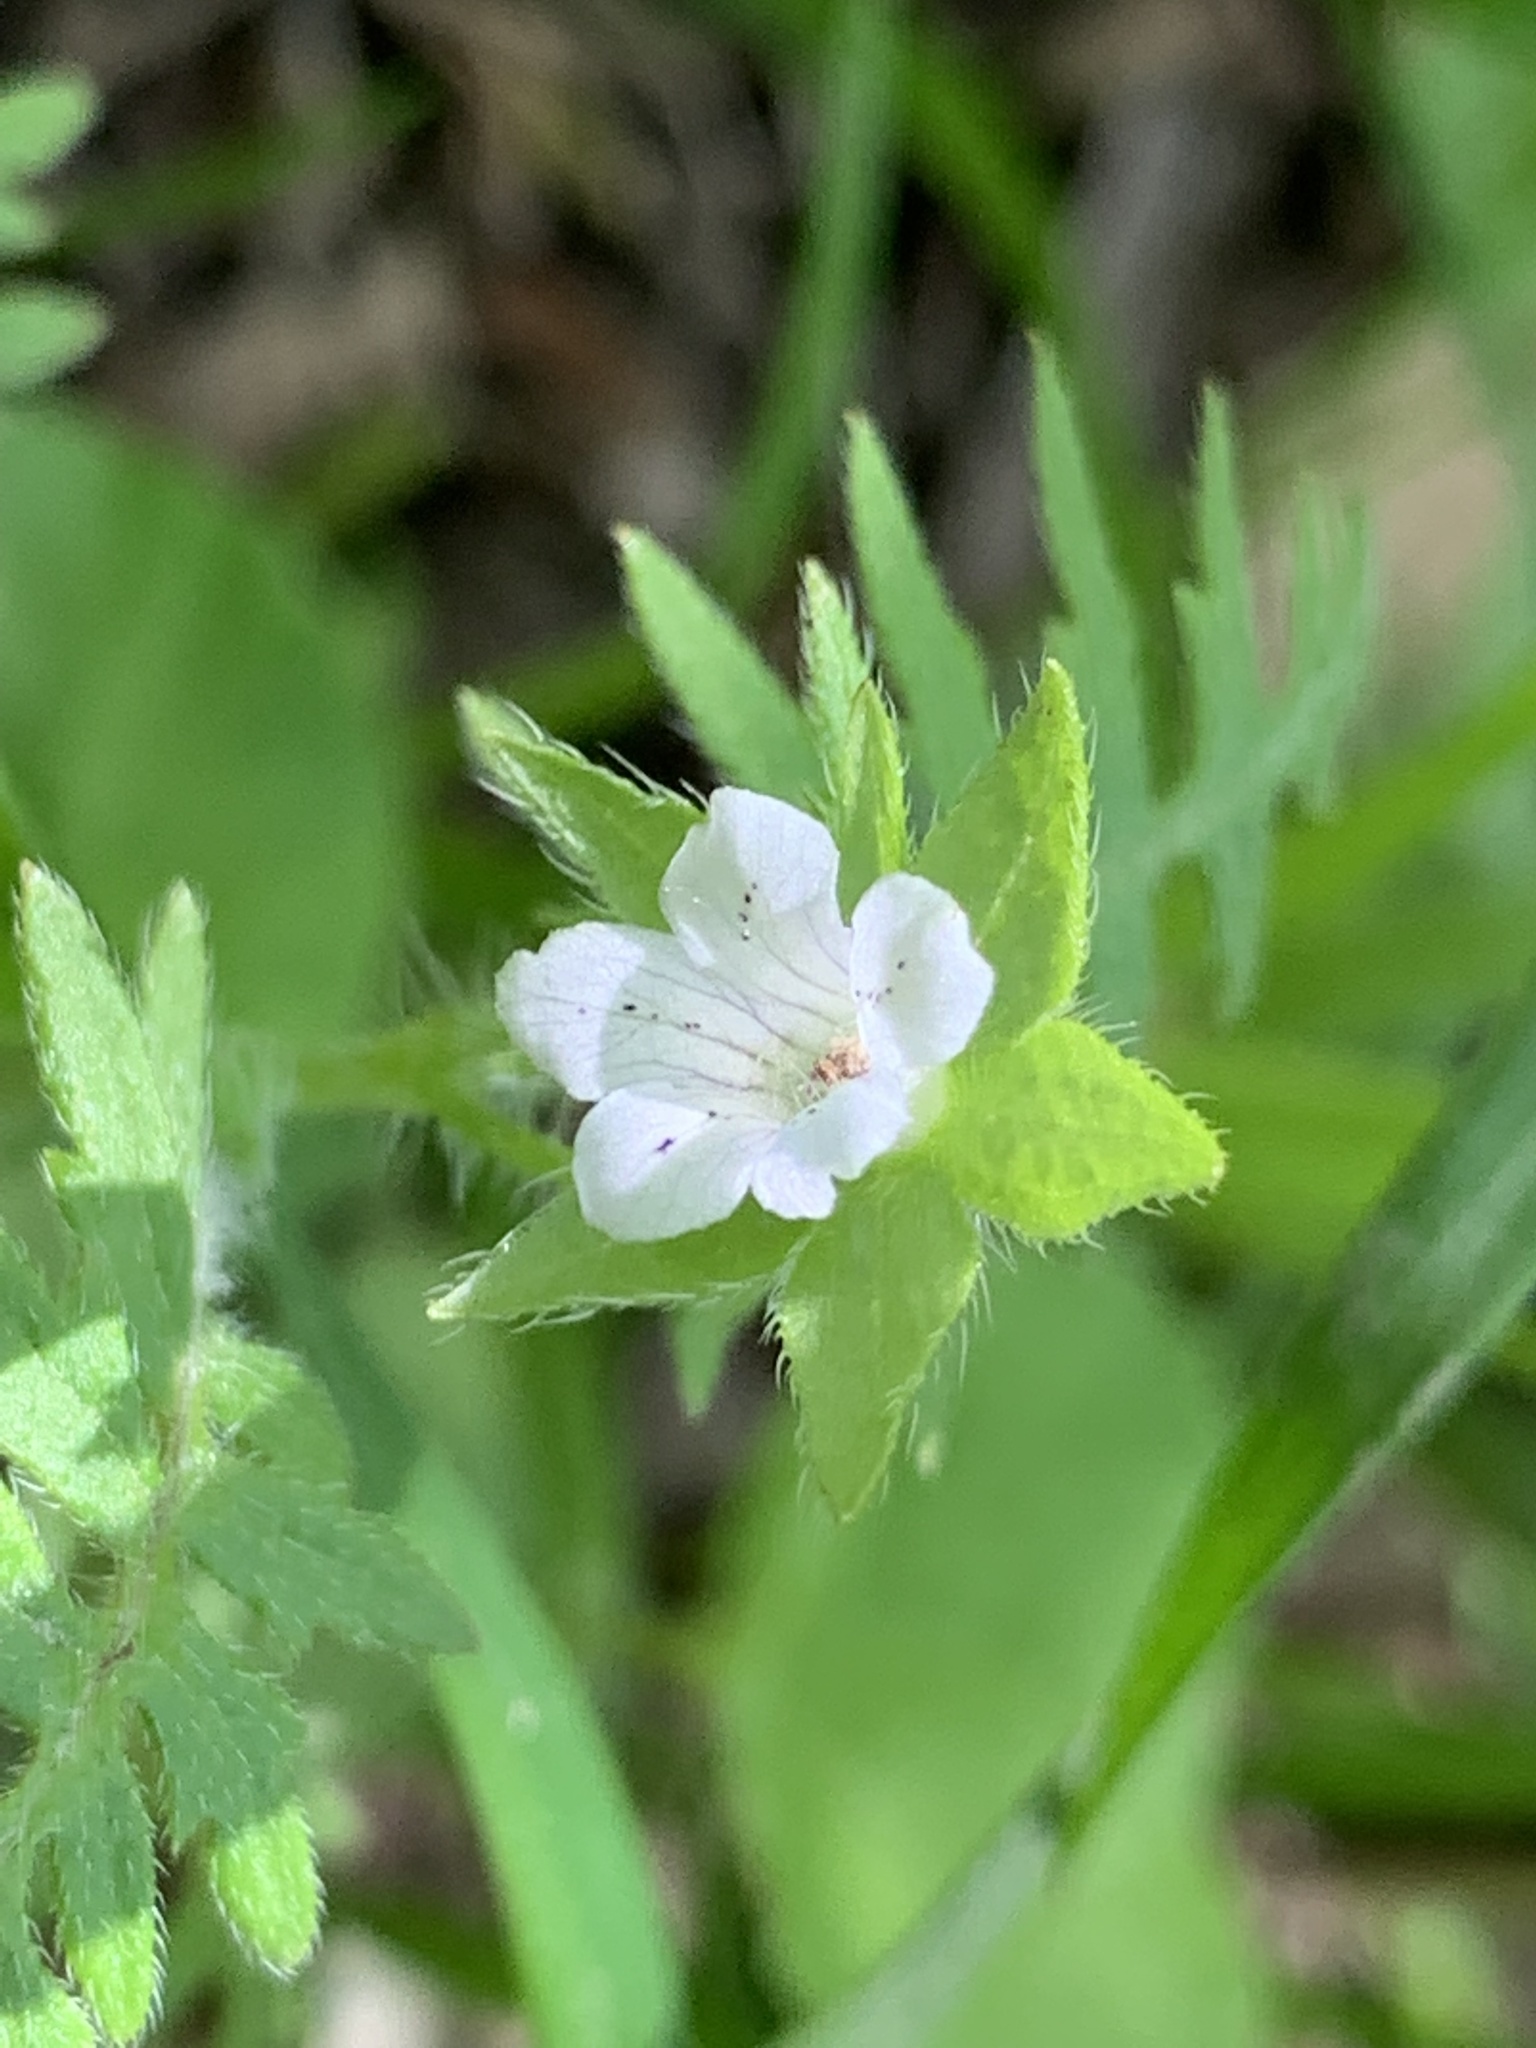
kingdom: Plantae
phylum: Tracheophyta
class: Magnoliopsida
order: Boraginales
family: Hydrophyllaceae
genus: Ellisia
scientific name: Ellisia nyctelea
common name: Aunt lucy
